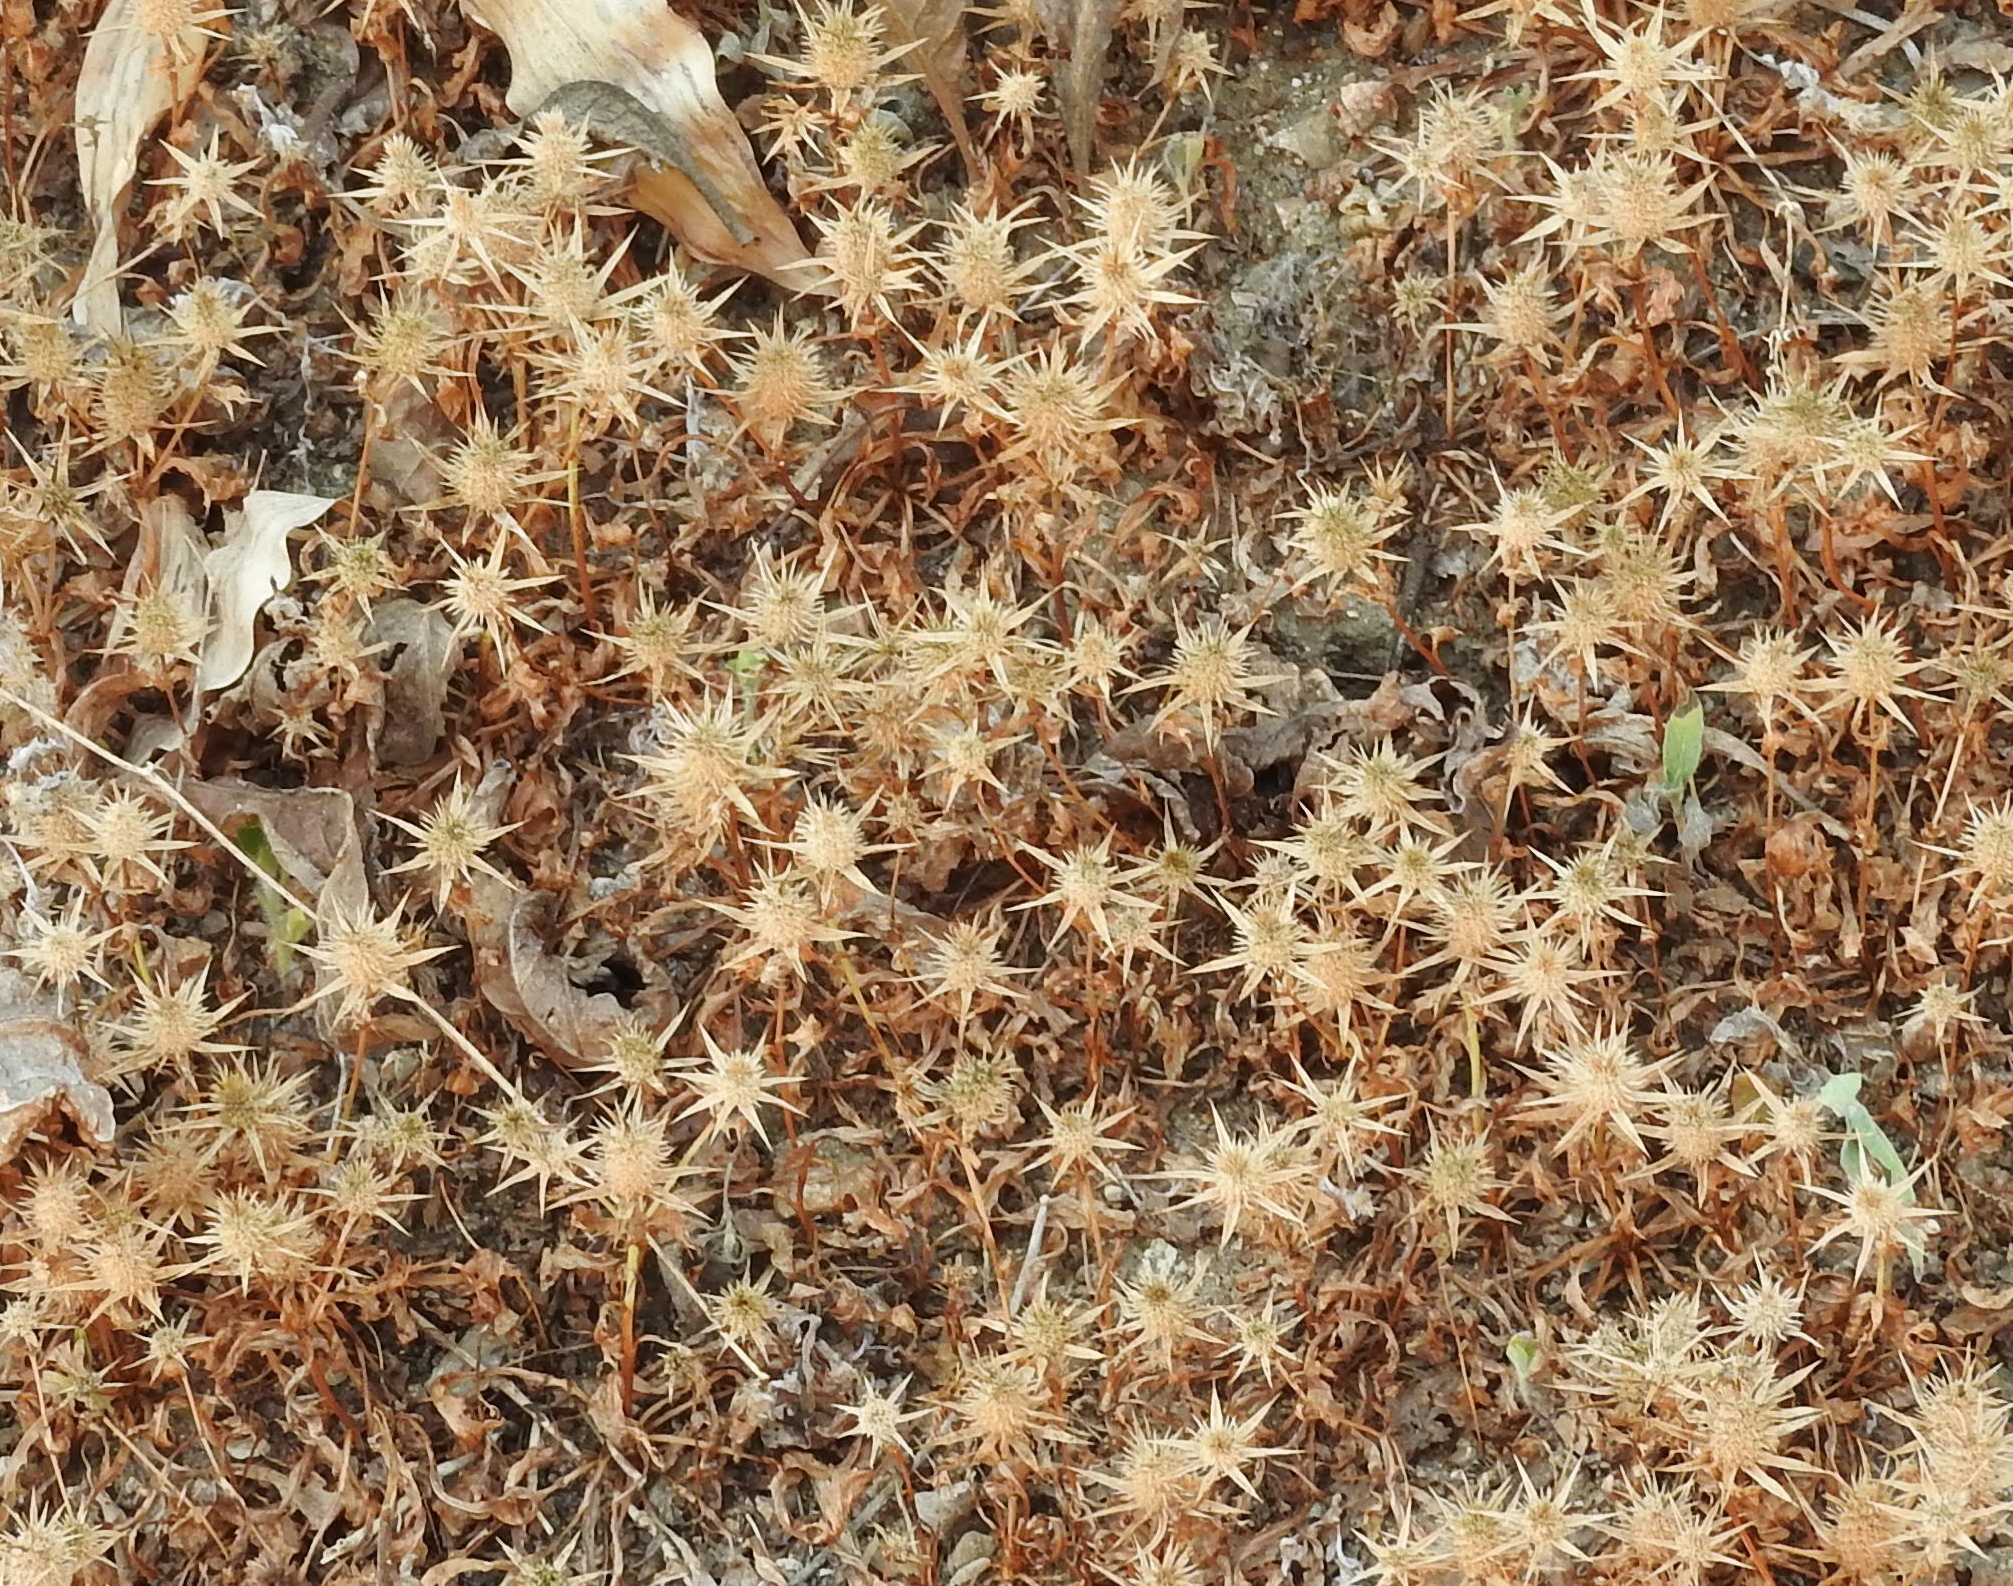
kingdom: Plantae
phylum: Tracheophyta
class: Magnoliopsida
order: Apiales
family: Apiaceae
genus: Eryngium
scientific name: Eryngium nasturtiifolium
